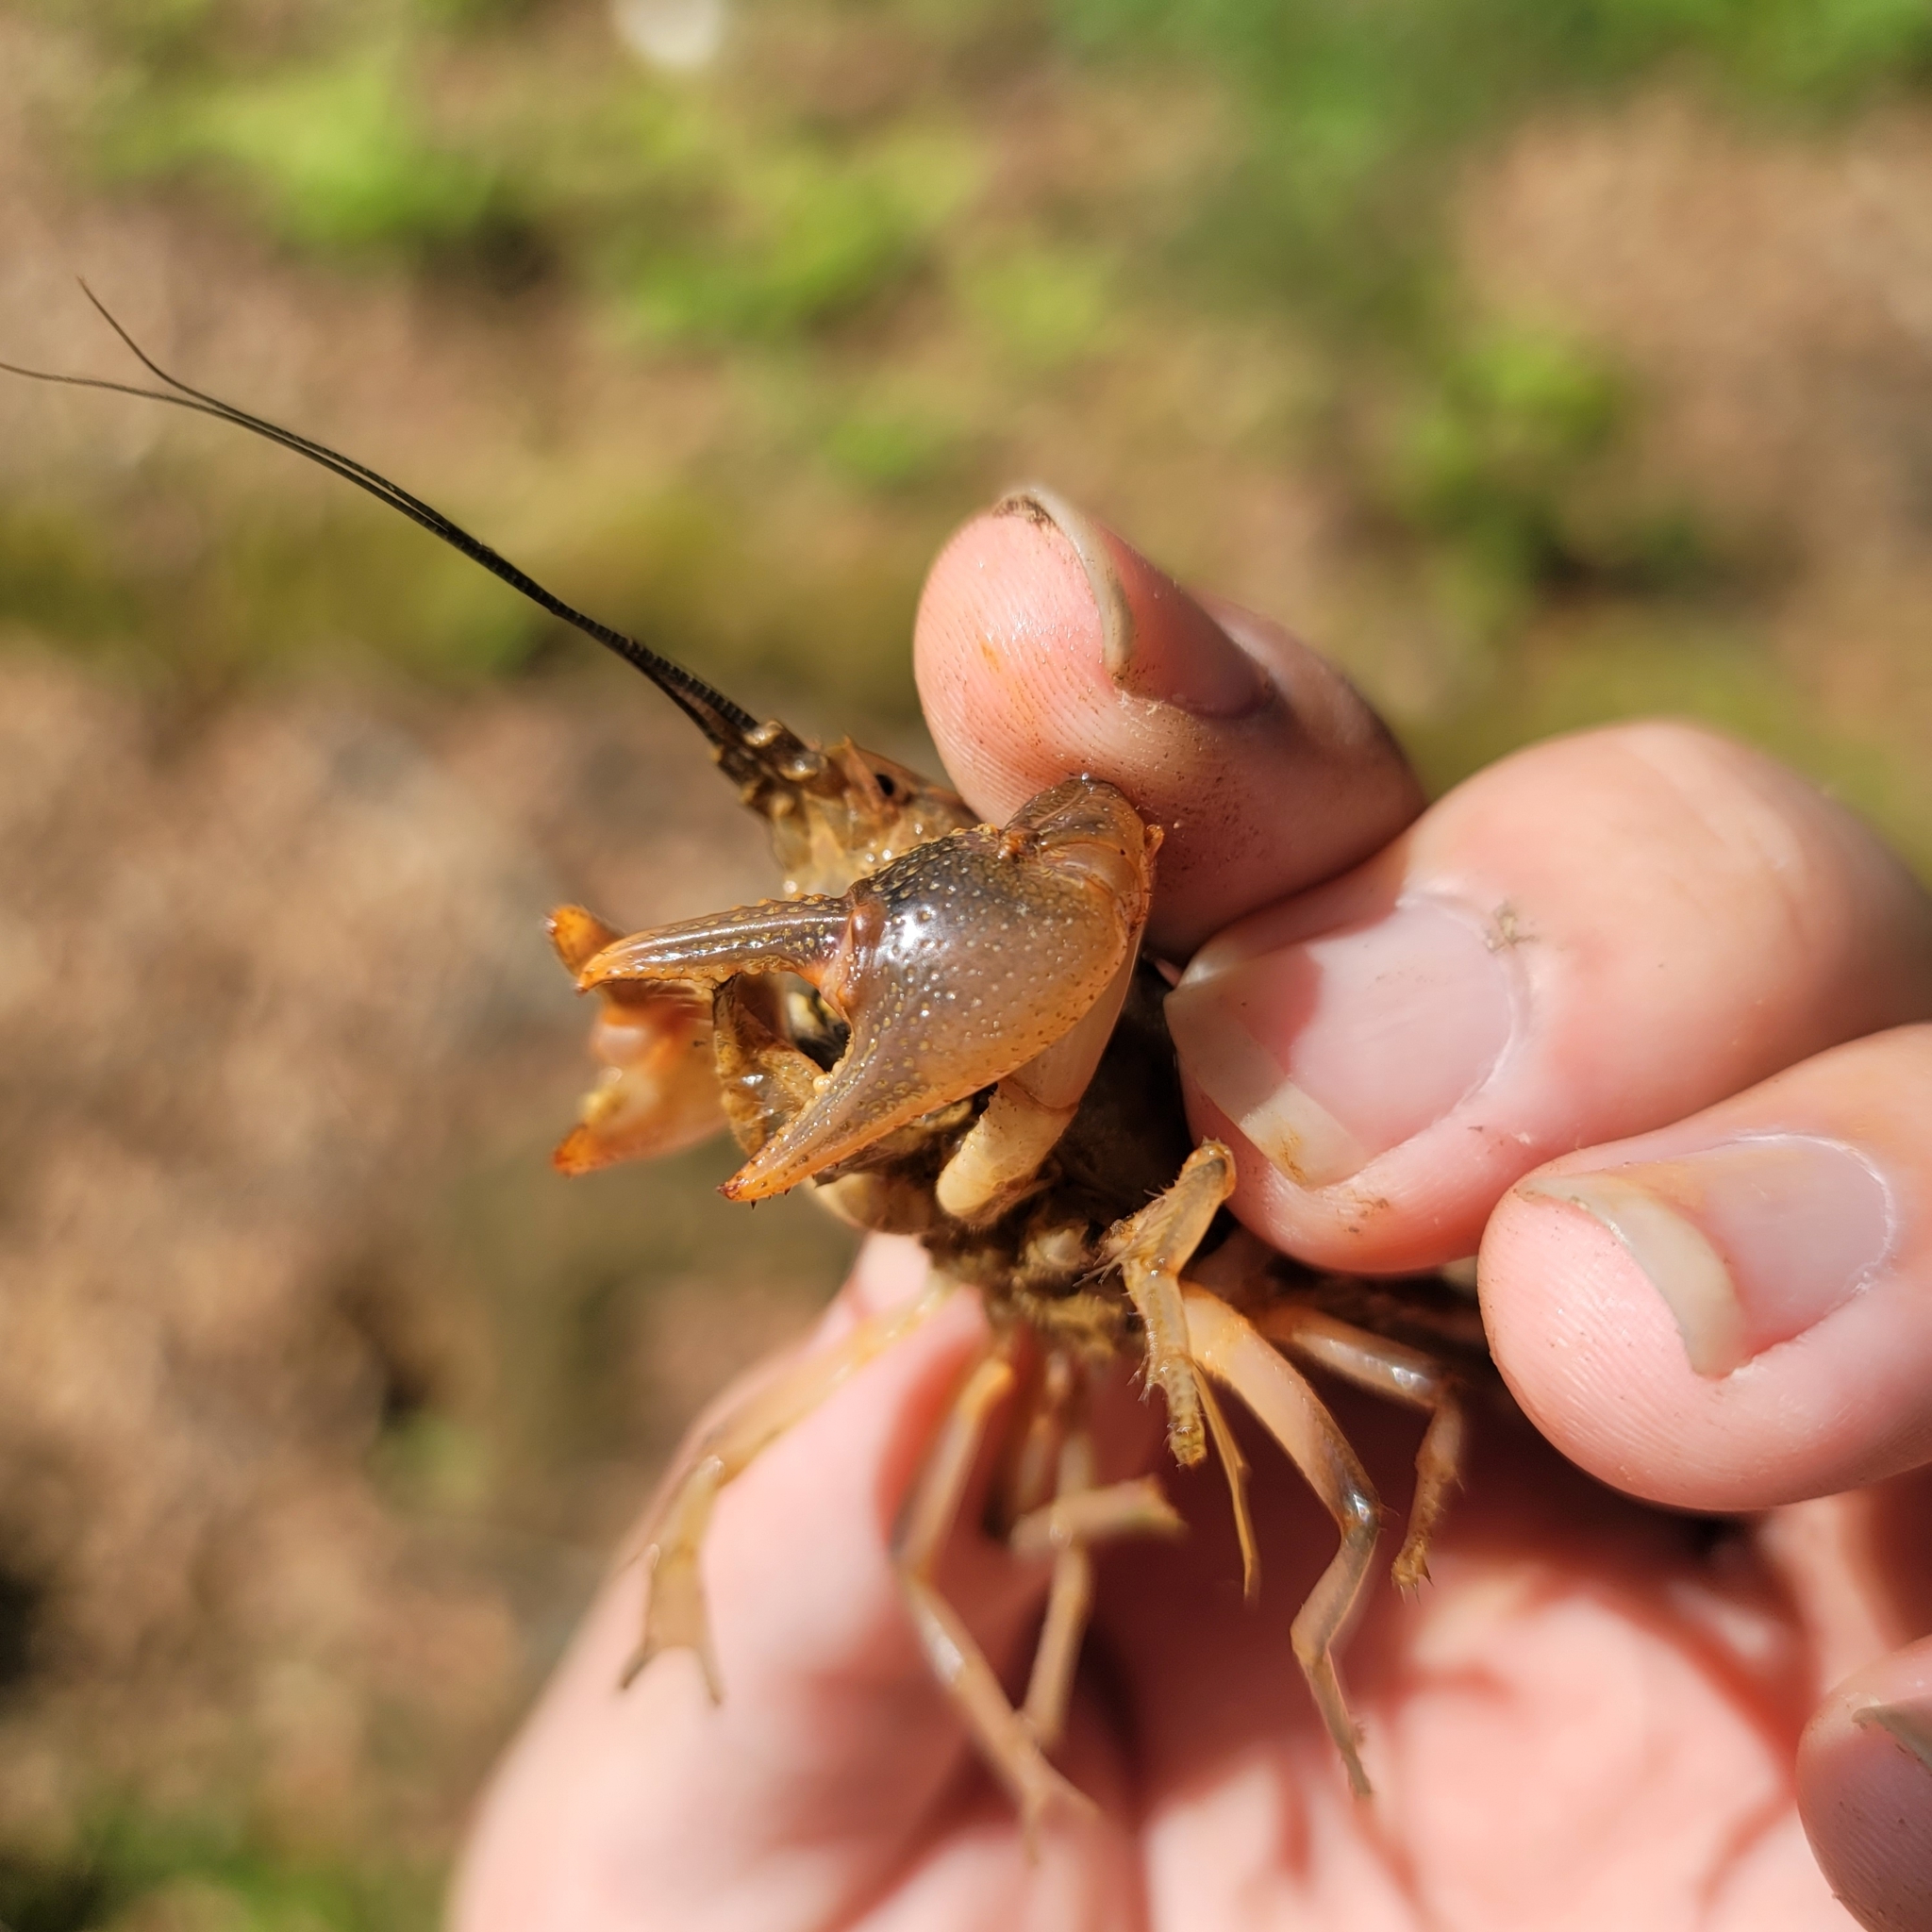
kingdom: Animalia
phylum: Arthropoda
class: Malacostraca
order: Decapoda
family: Cambaridae
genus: Cambarus
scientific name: Cambarus striatus
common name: Ambiguous crayfish
